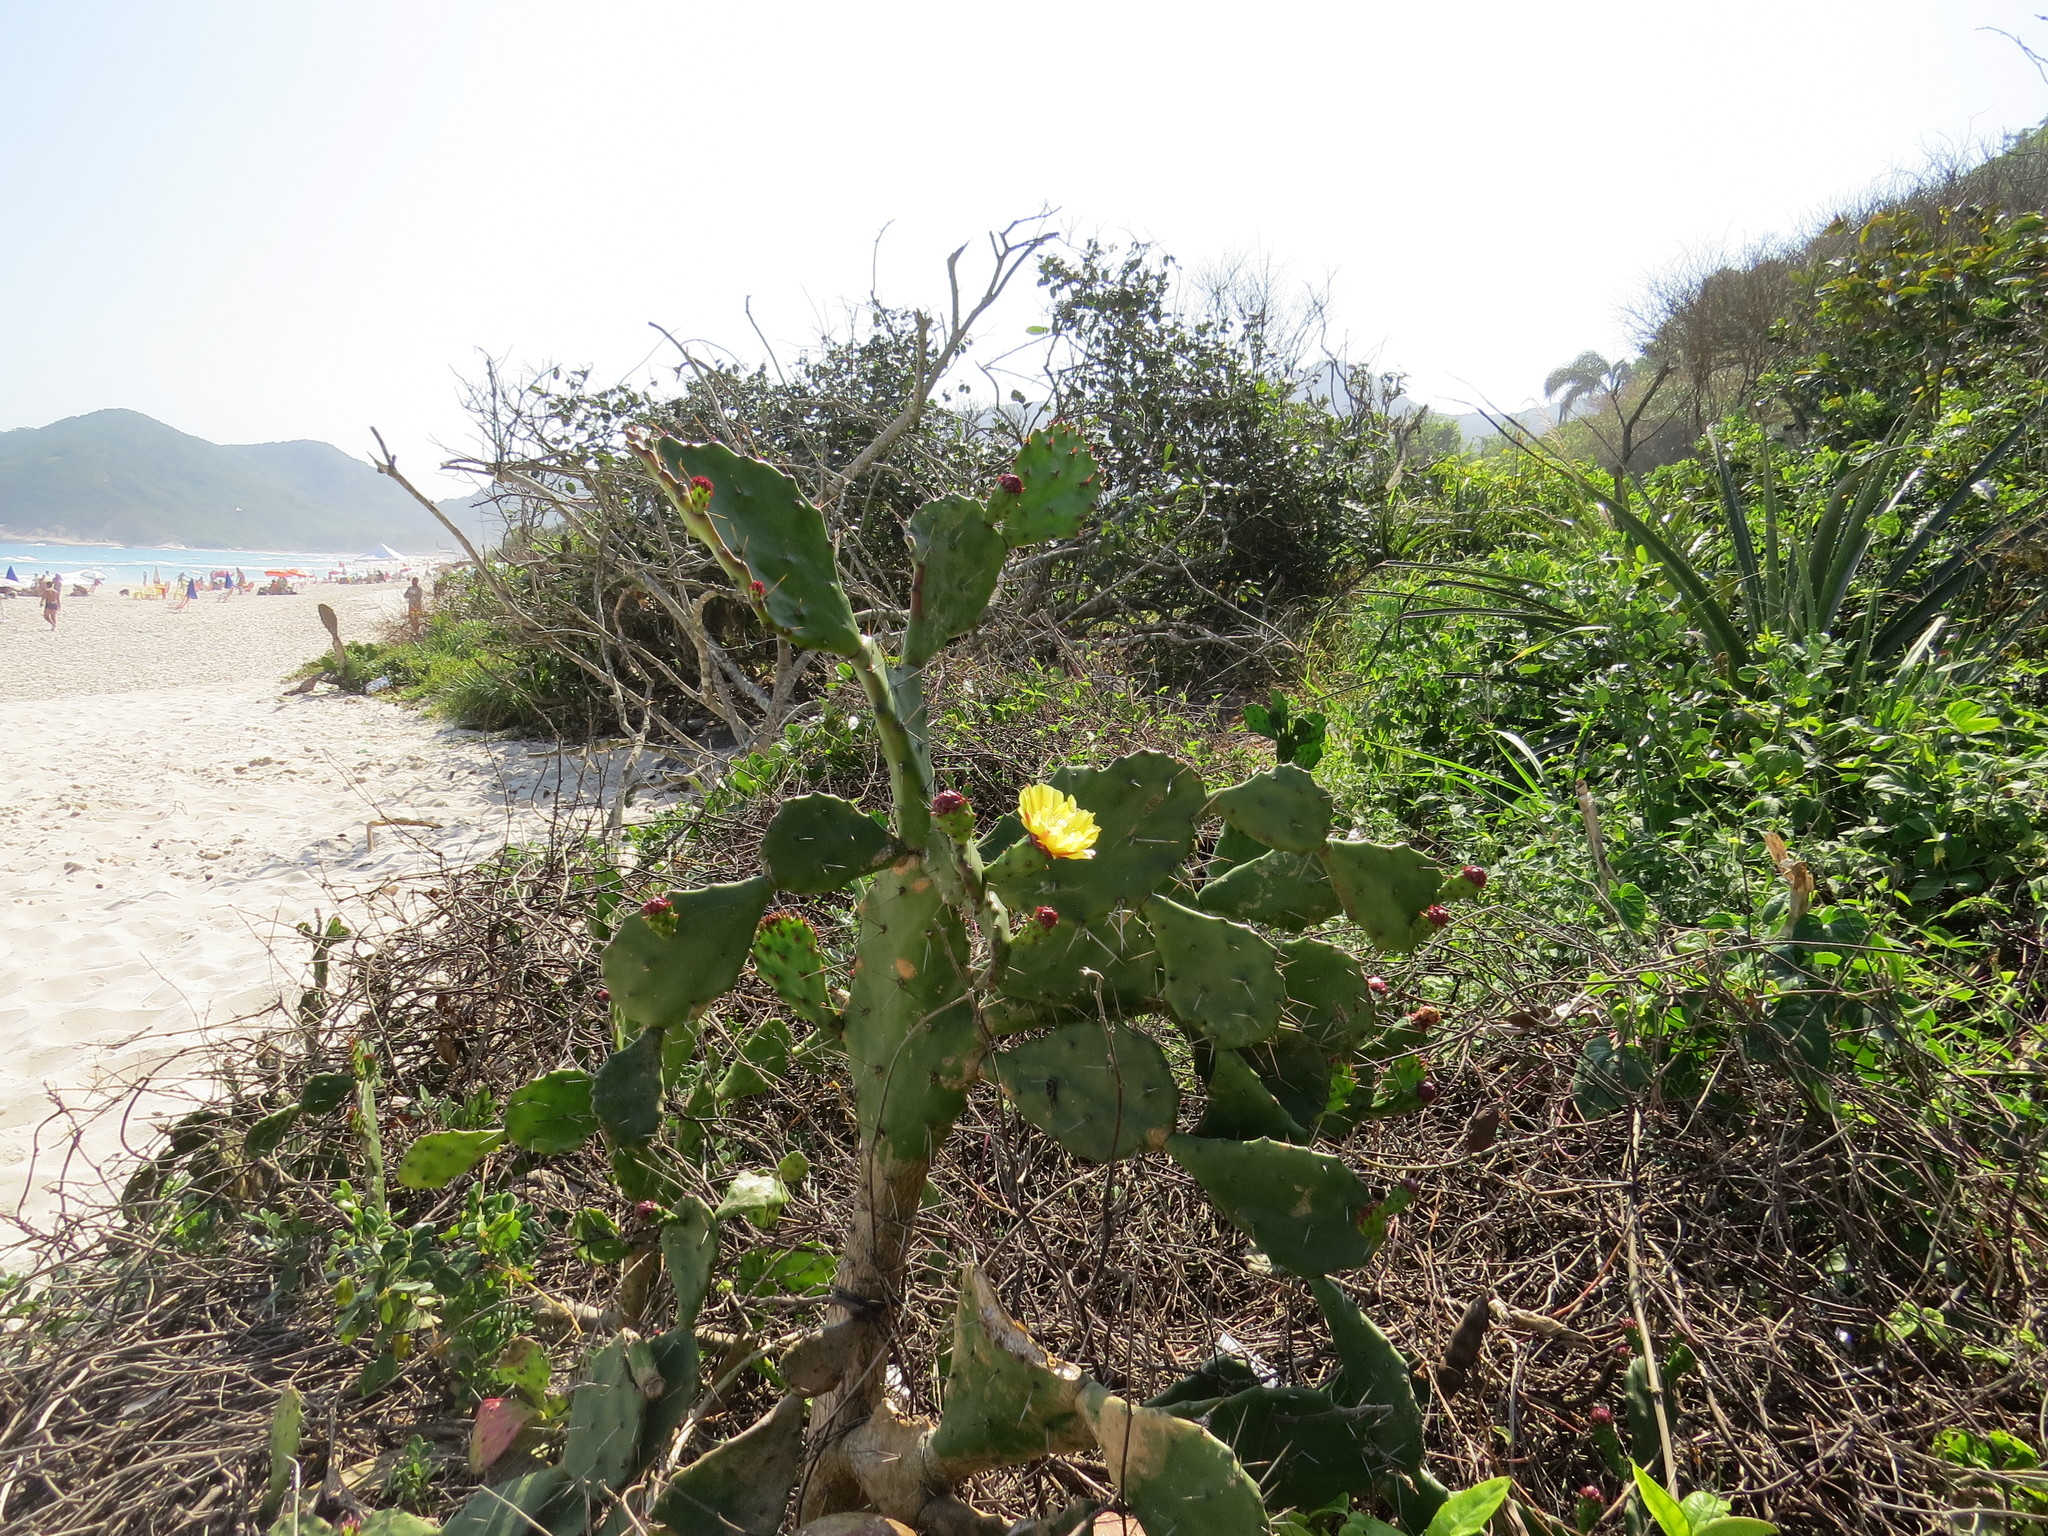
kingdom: Plantae
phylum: Tracheophyta
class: Magnoliopsida
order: Caryophyllales
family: Cactaceae
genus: Opuntia
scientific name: Opuntia monacantha
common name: Common pricklypear
